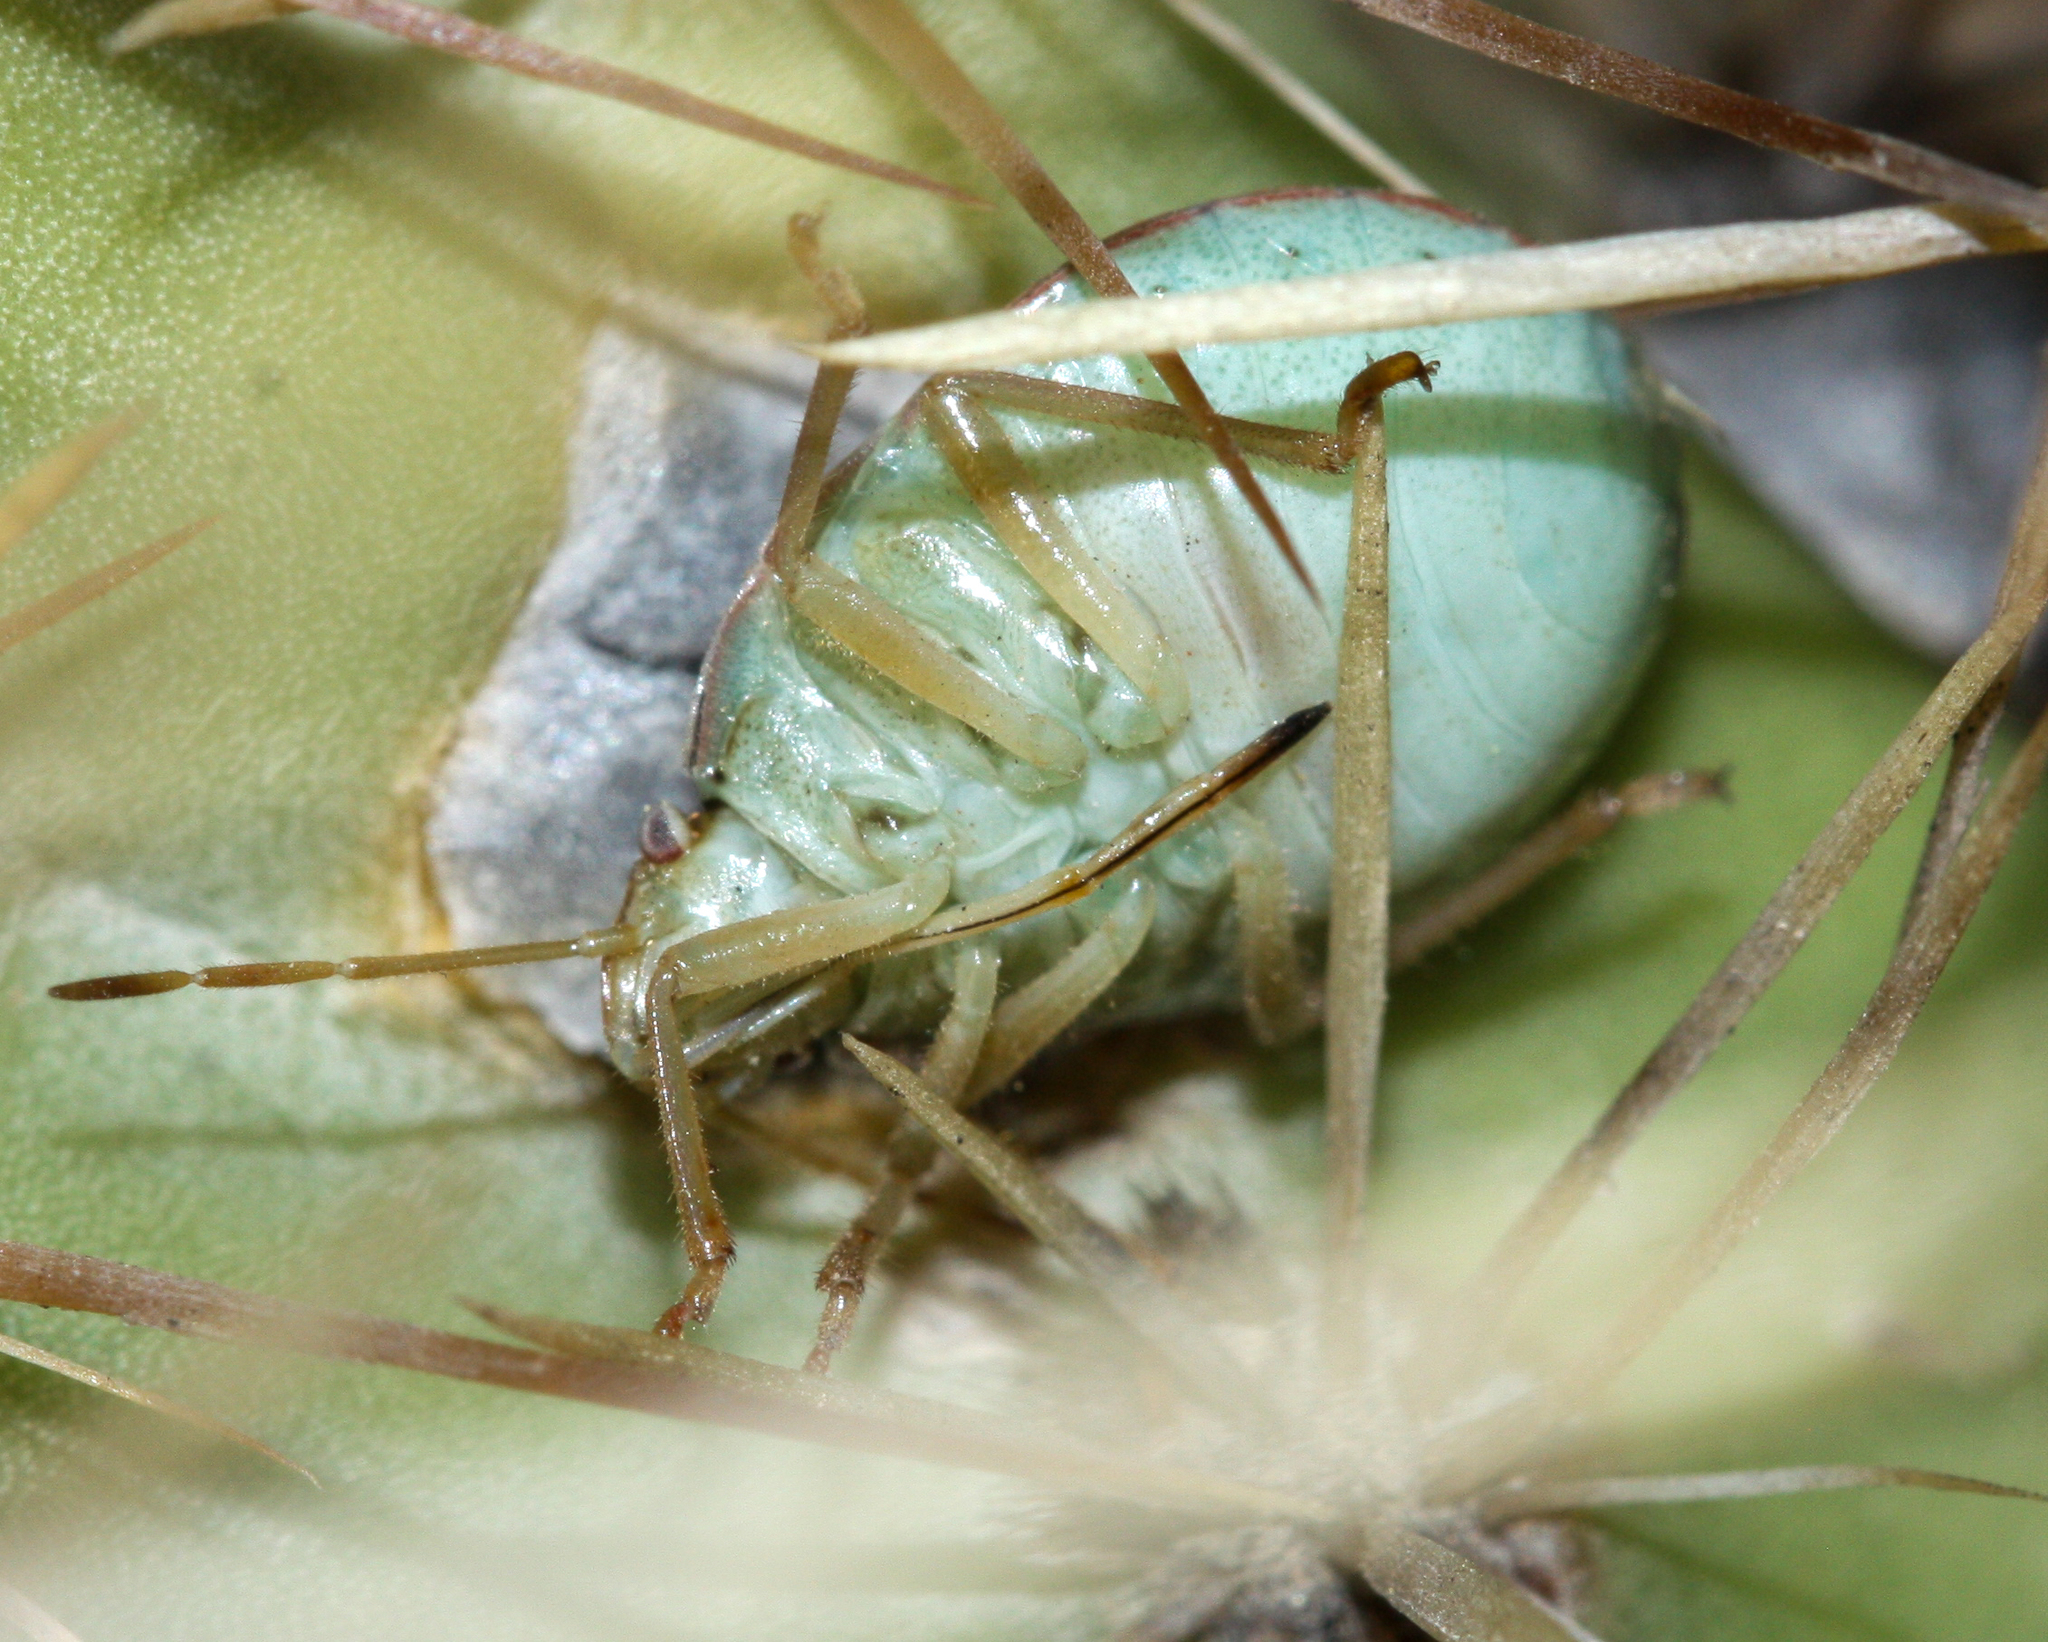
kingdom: Animalia
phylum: Arthropoda
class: Insecta
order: Hemiptera
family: Pentatomidae
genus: Chlorochroa
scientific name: Chlorochroa opuntiae
